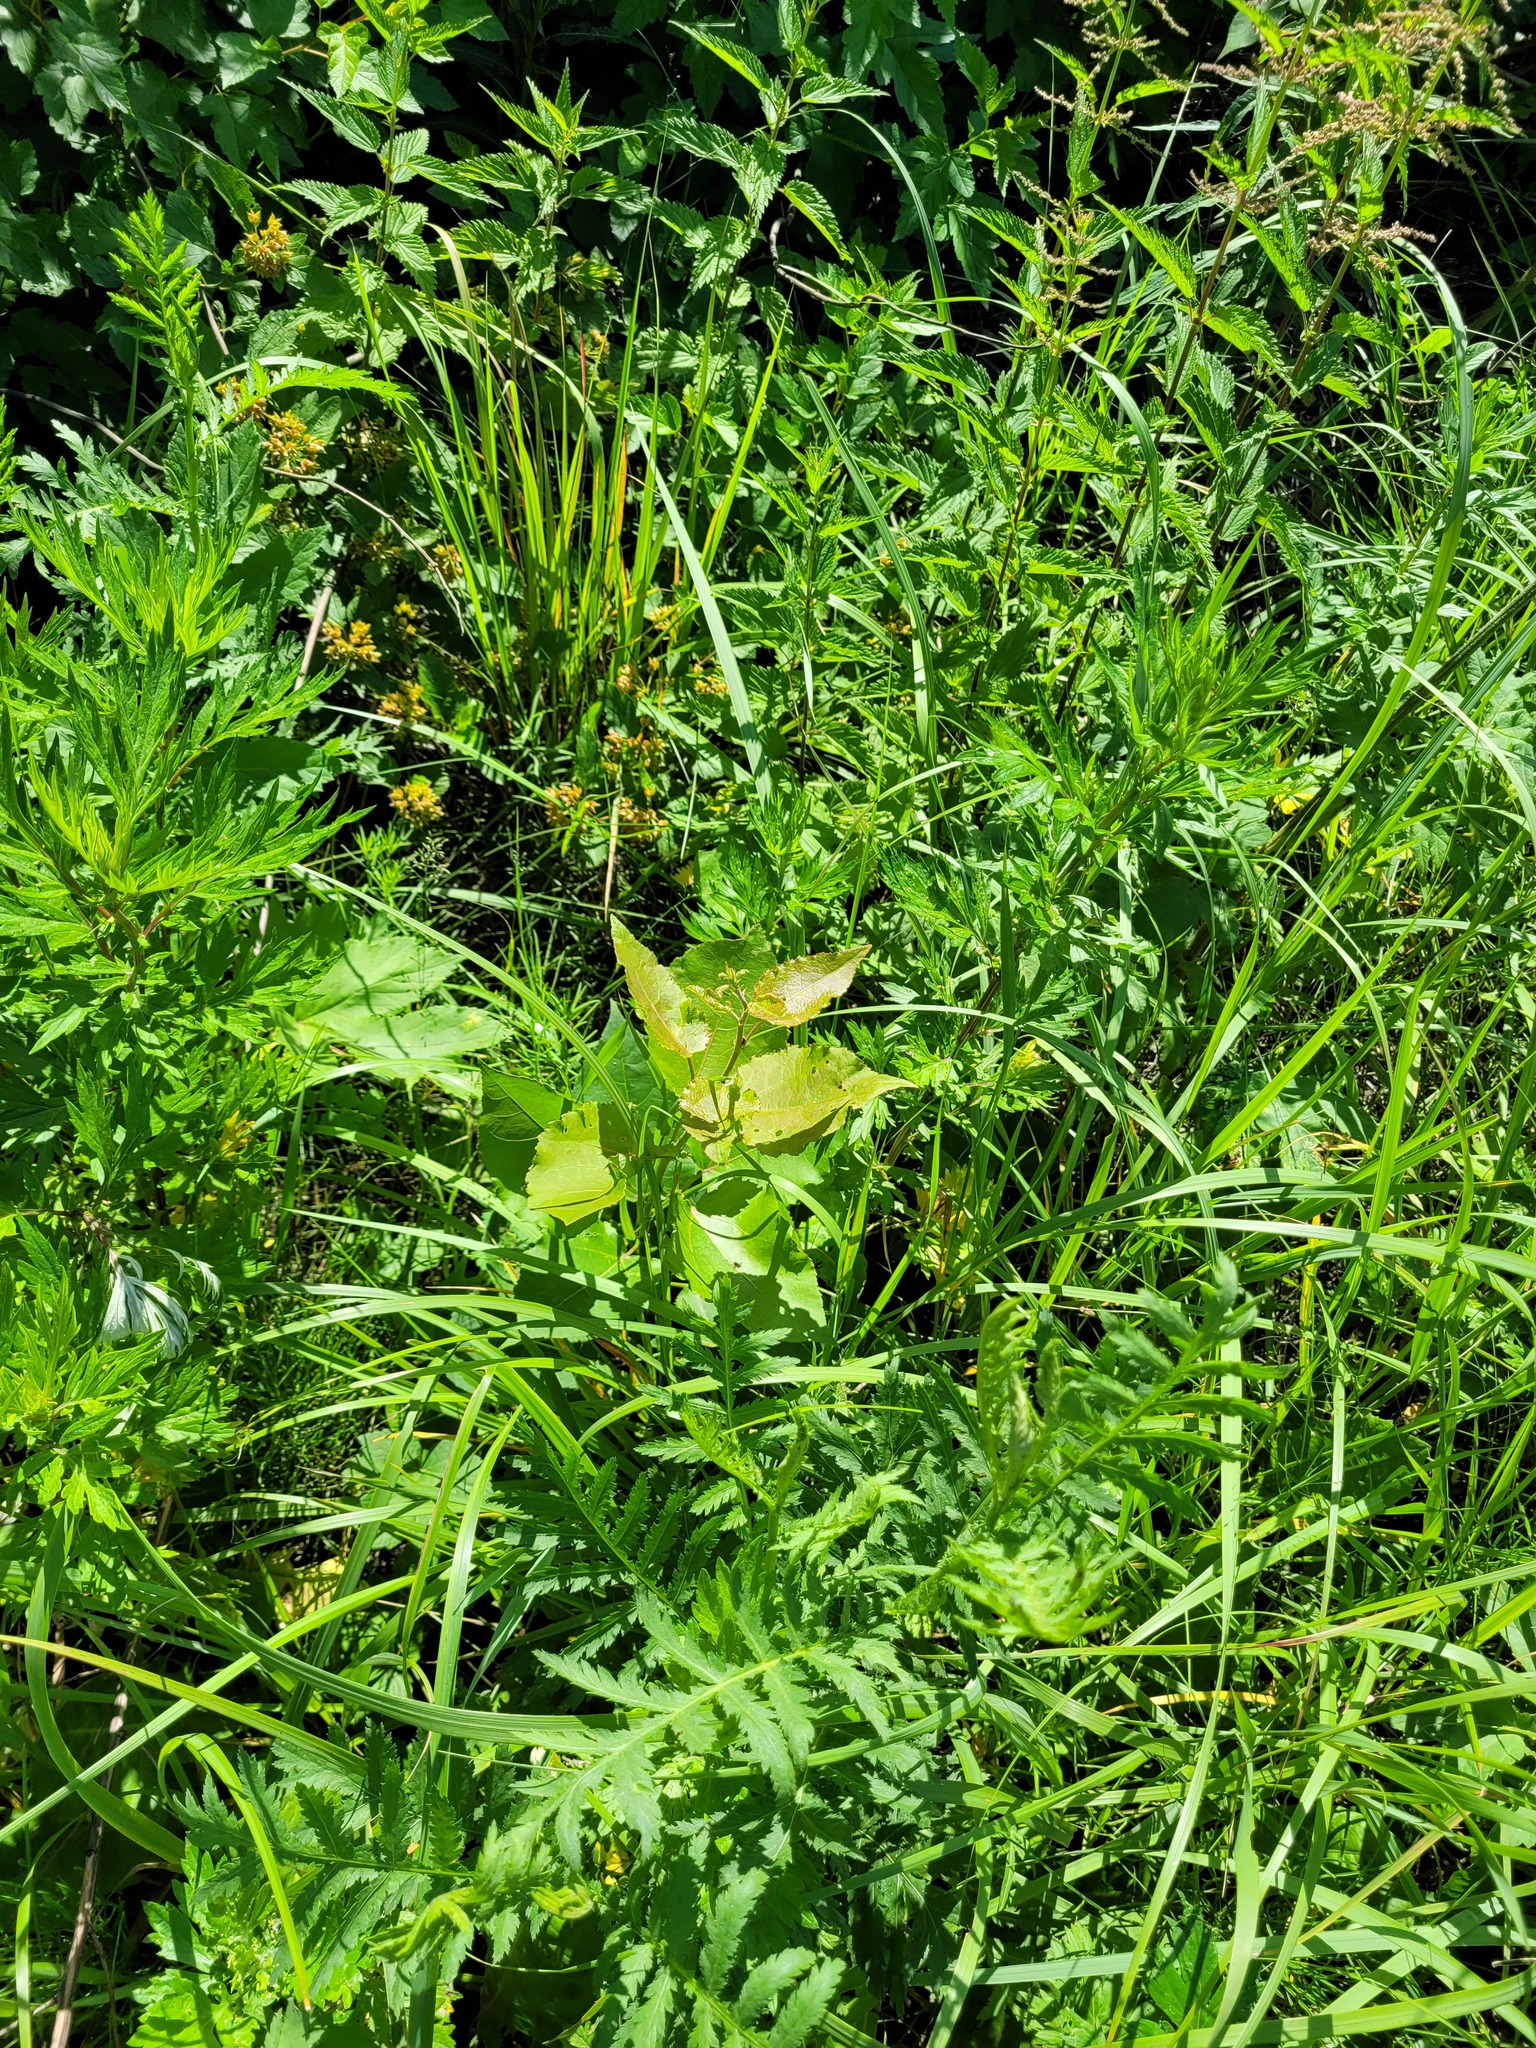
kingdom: Plantae
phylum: Tracheophyta
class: Magnoliopsida
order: Malpighiales
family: Salicaceae
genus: Populus
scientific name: Populus tremula
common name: European aspen
